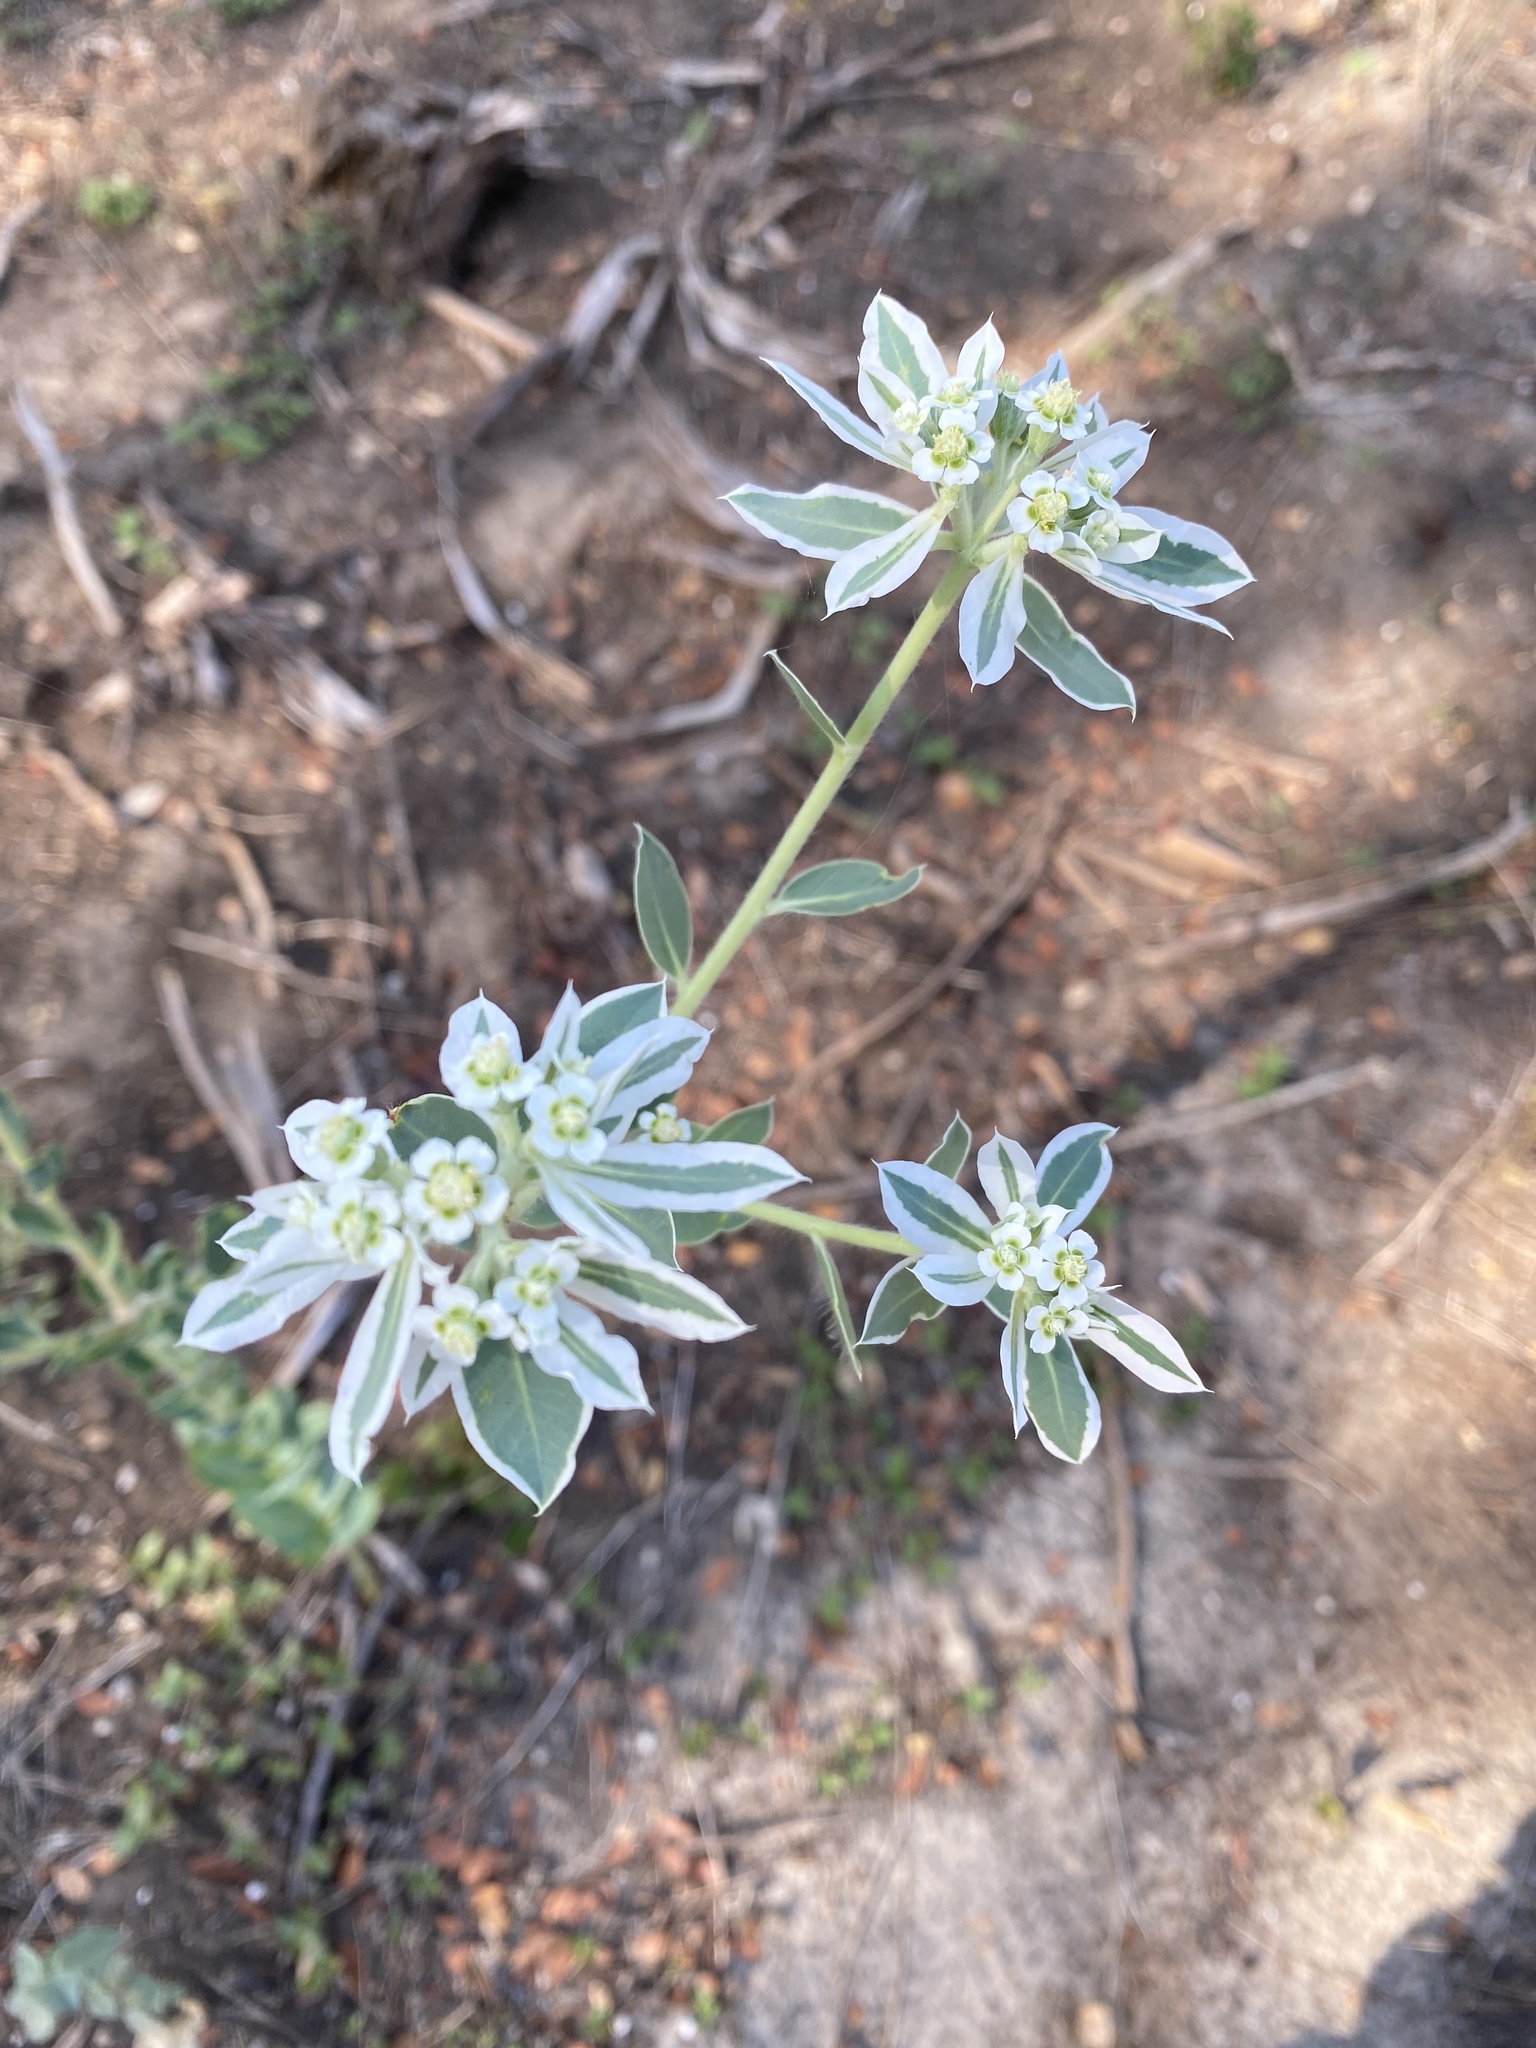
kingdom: Plantae
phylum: Tracheophyta
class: Magnoliopsida
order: Malpighiales
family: Euphorbiaceae
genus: Euphorbia
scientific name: Euphorbia marginata
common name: Ghostweed
